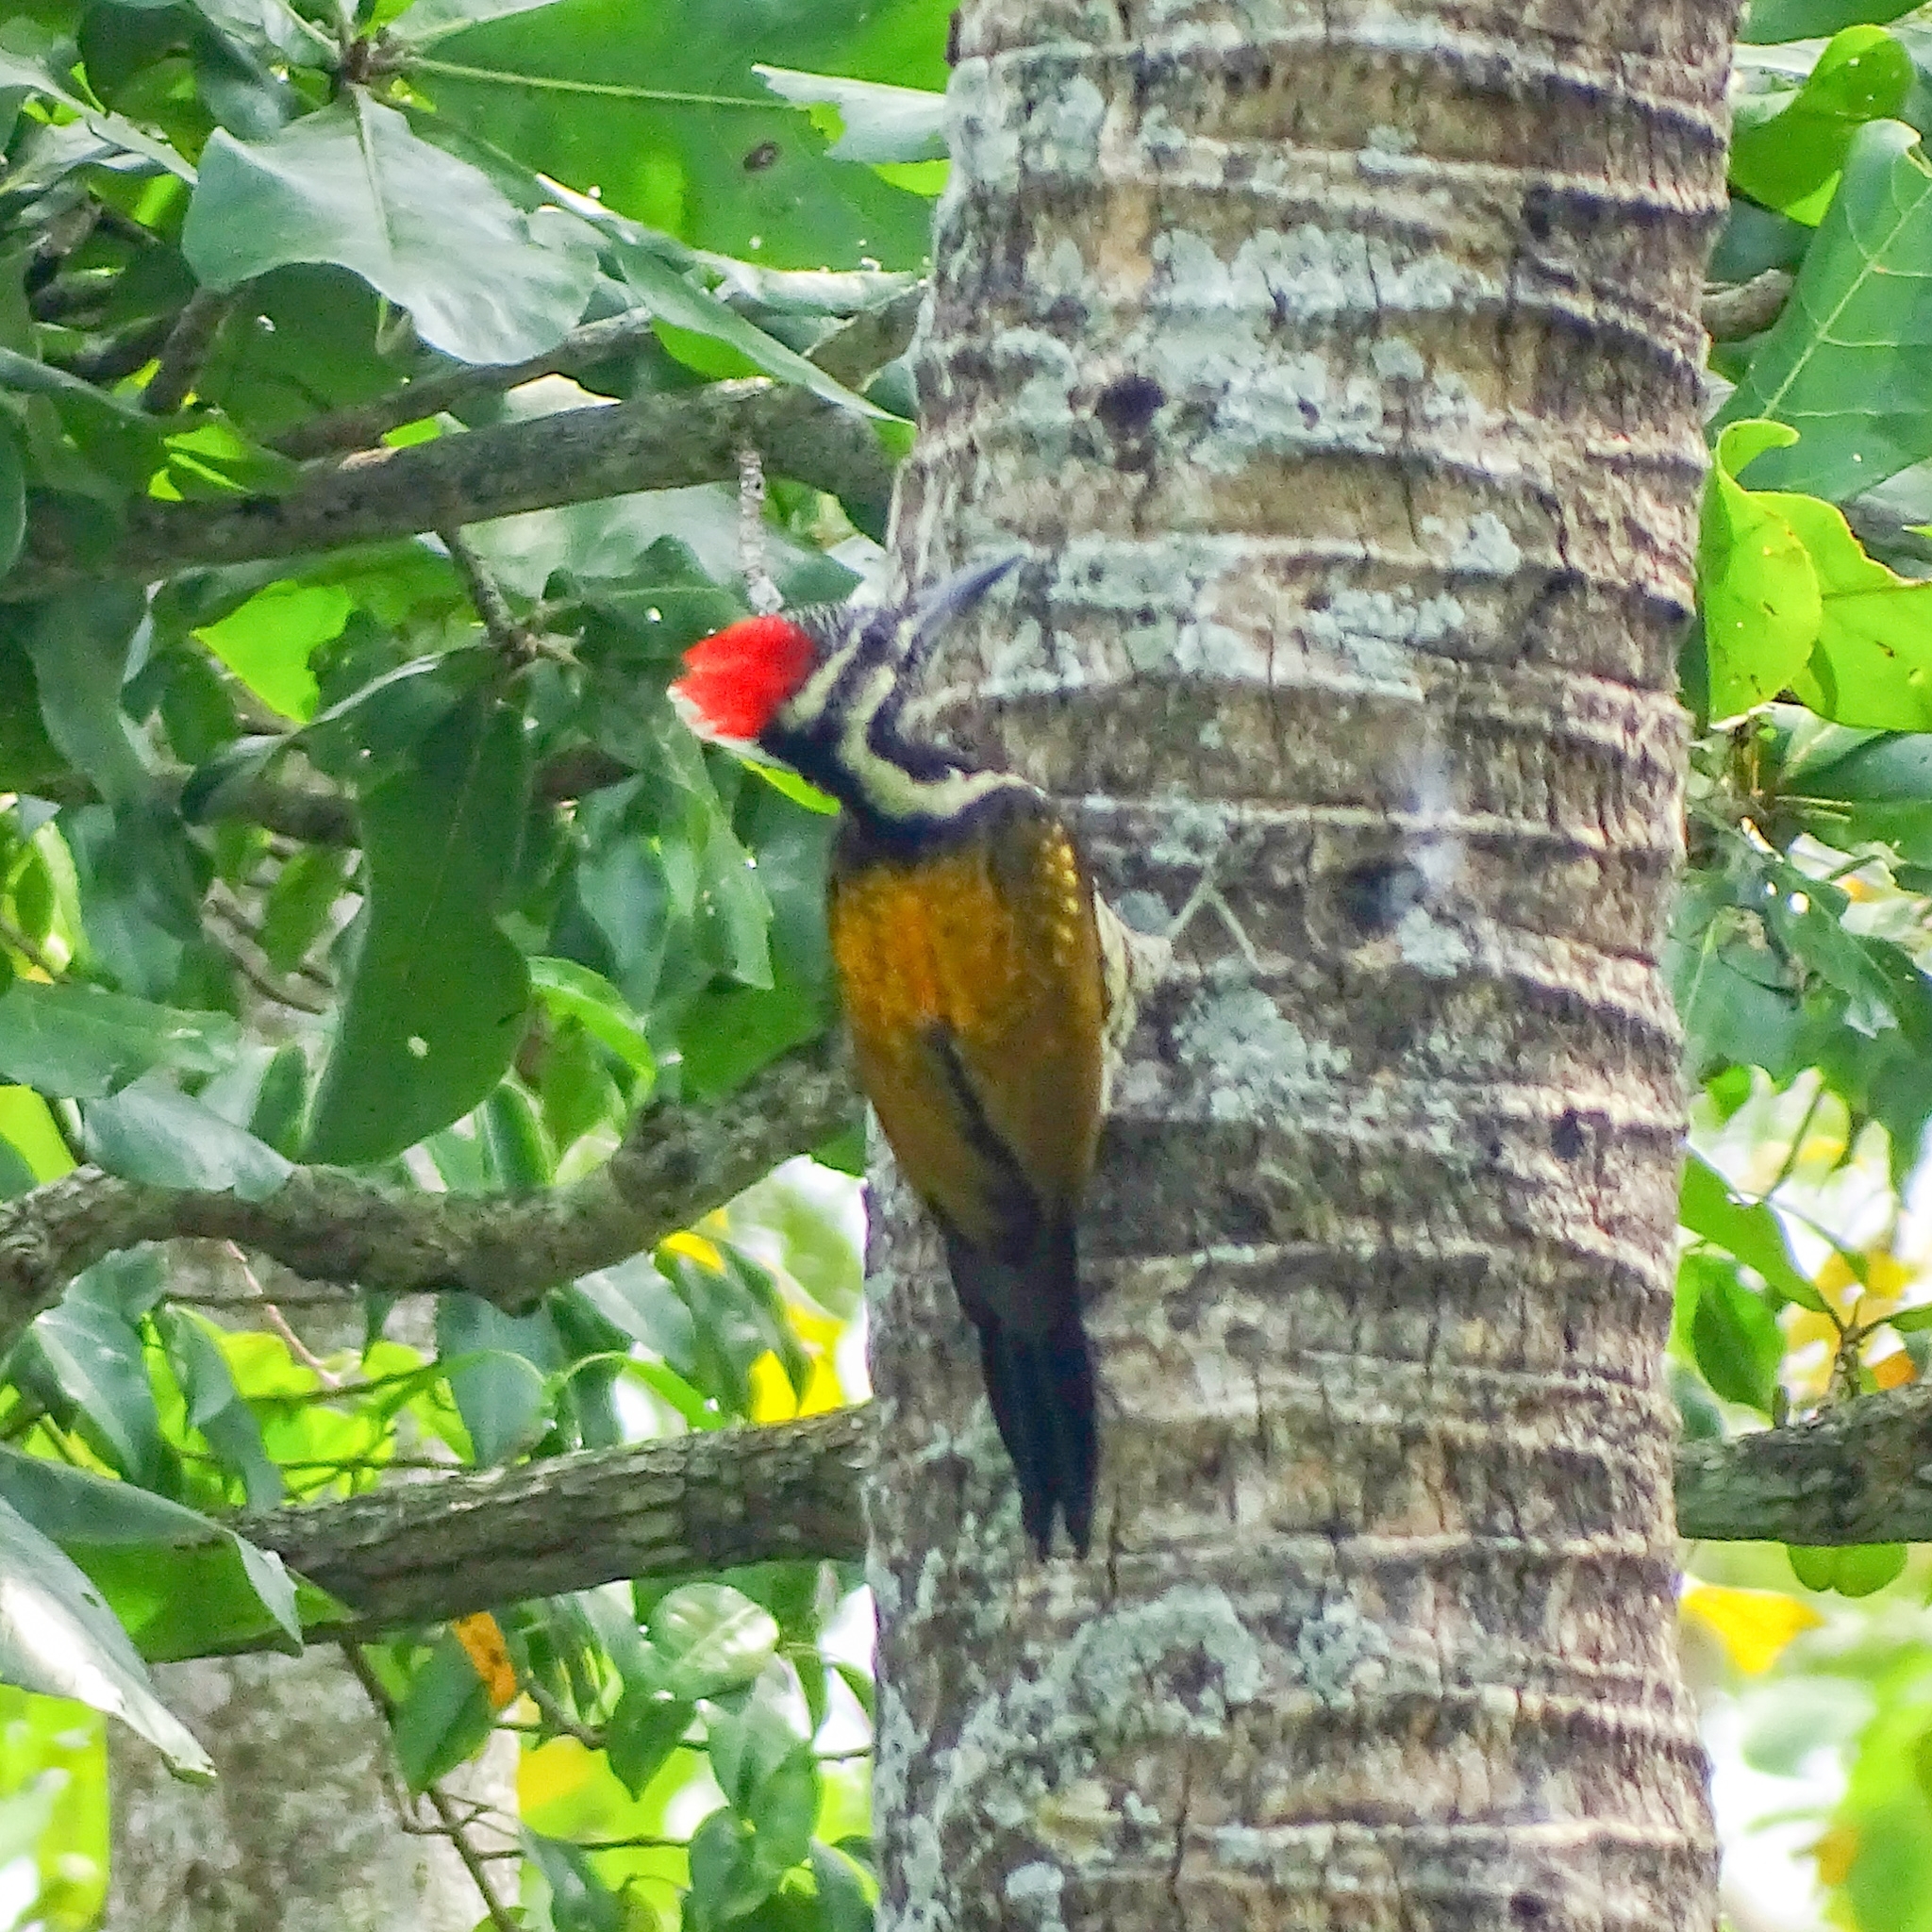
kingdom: Animalia
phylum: Chordata
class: Aves
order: Piciformes
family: Picidae
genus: Dinopium
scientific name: Dinopium benghalense
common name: Black-rumped flameback
